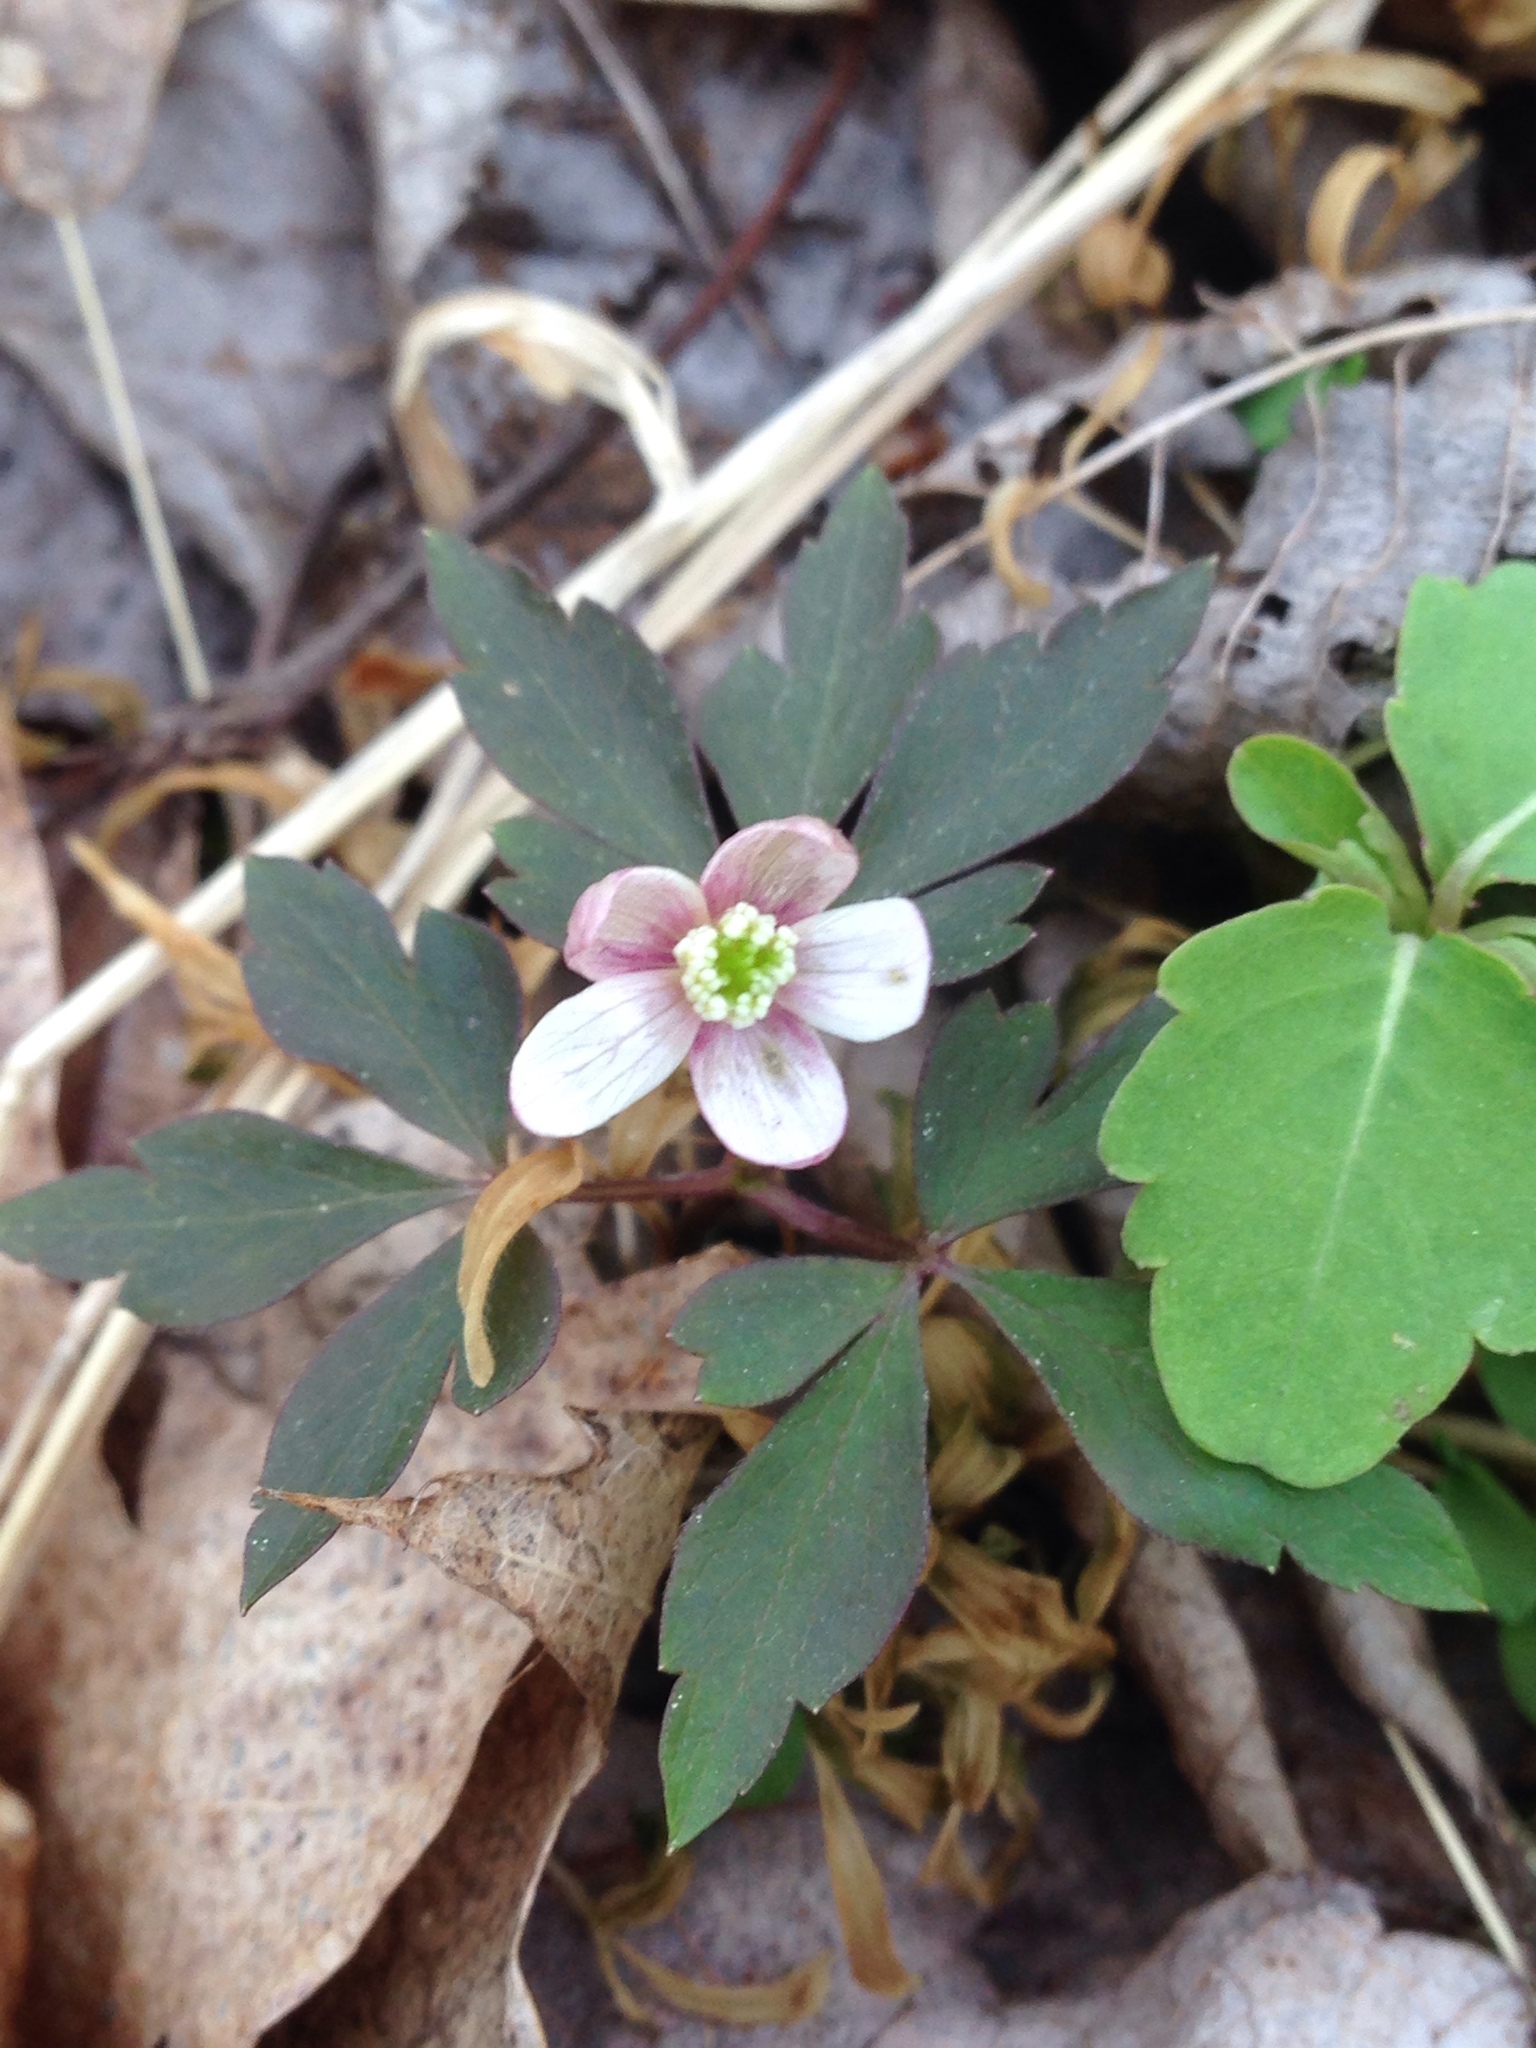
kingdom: Plantae
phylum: Tracheophyta
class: Magnoliopsida
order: Ranunculales
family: Ranunculaceae
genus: Anemone
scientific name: Anemone quinquefolia
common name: Wood anemone
